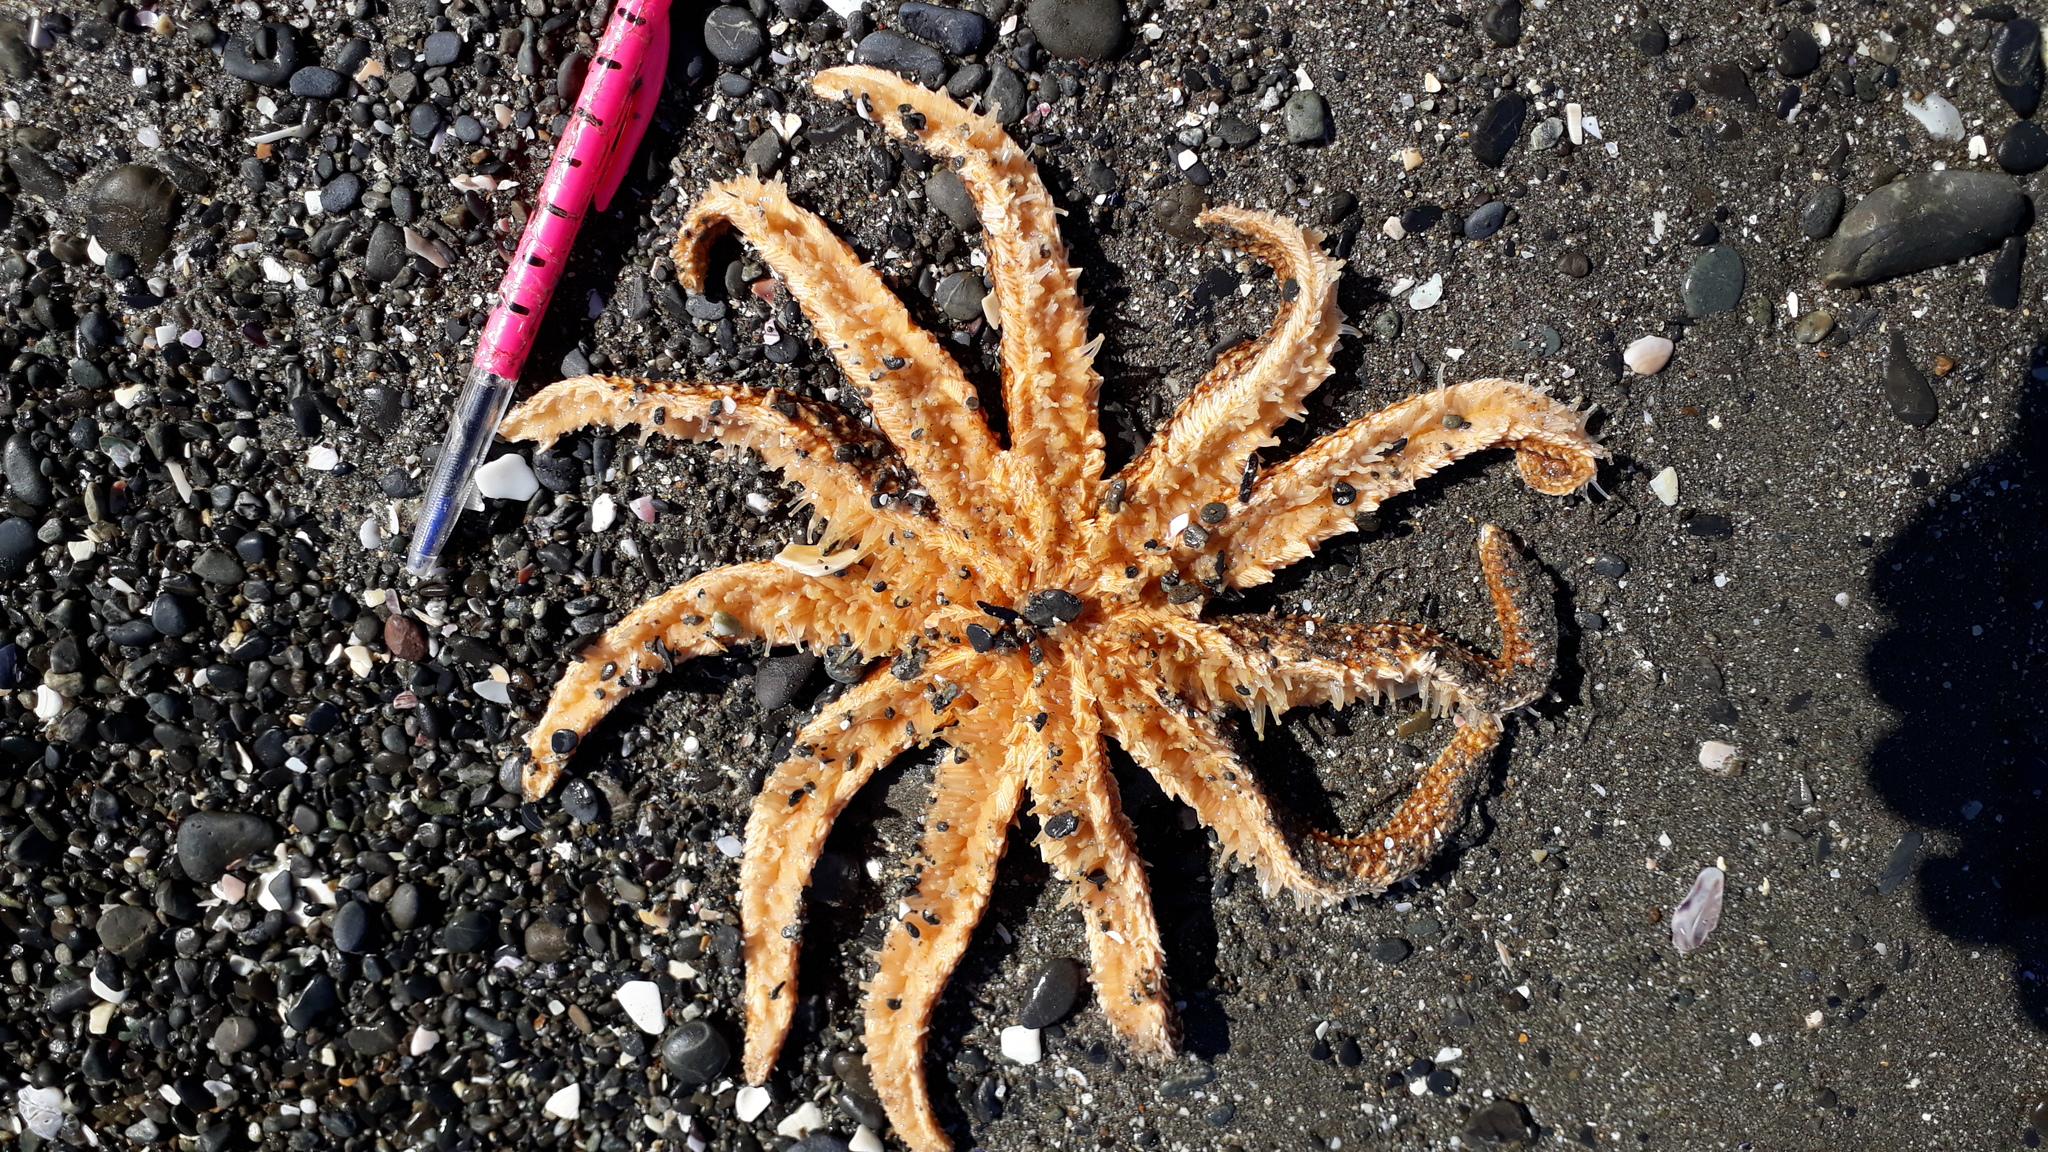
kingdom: Animalia
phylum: Echinodermata
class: Asteroidea
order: Forcipulatida
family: Asteriidae
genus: Coscinasterias
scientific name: Coscinasterias muricata
